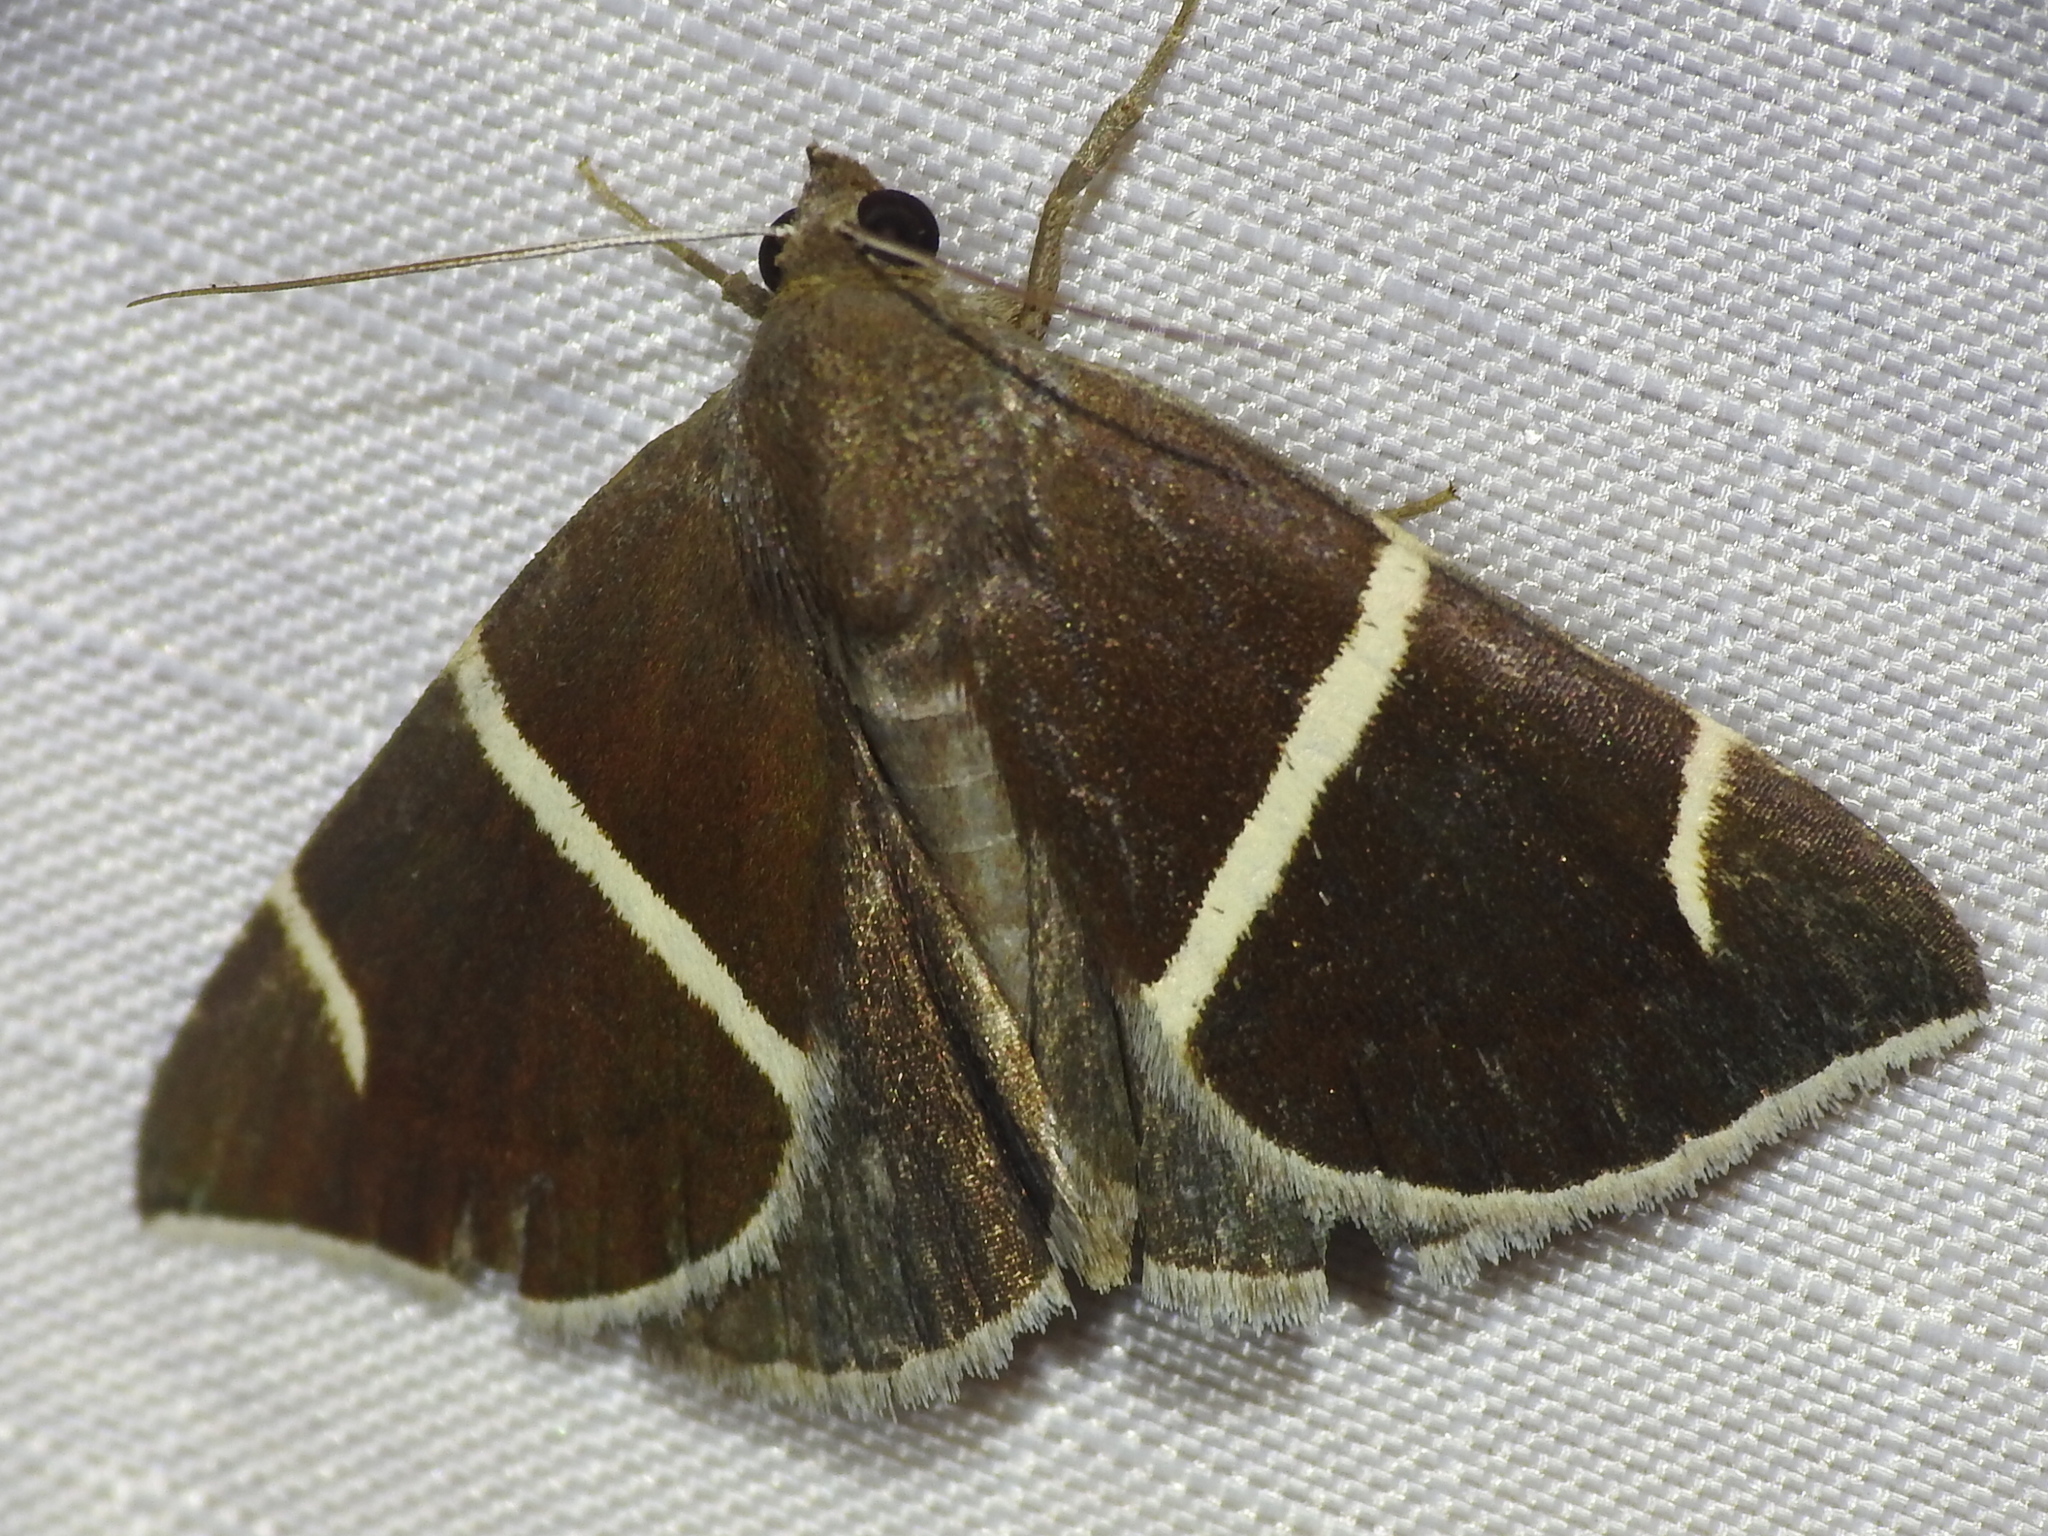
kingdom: Animalia
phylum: Arthropoda
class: Insecta
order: Lepidoptera
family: Erebidae
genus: Argyrostrotis
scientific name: Argyrostrotis anilis
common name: Short-lined chocolate
